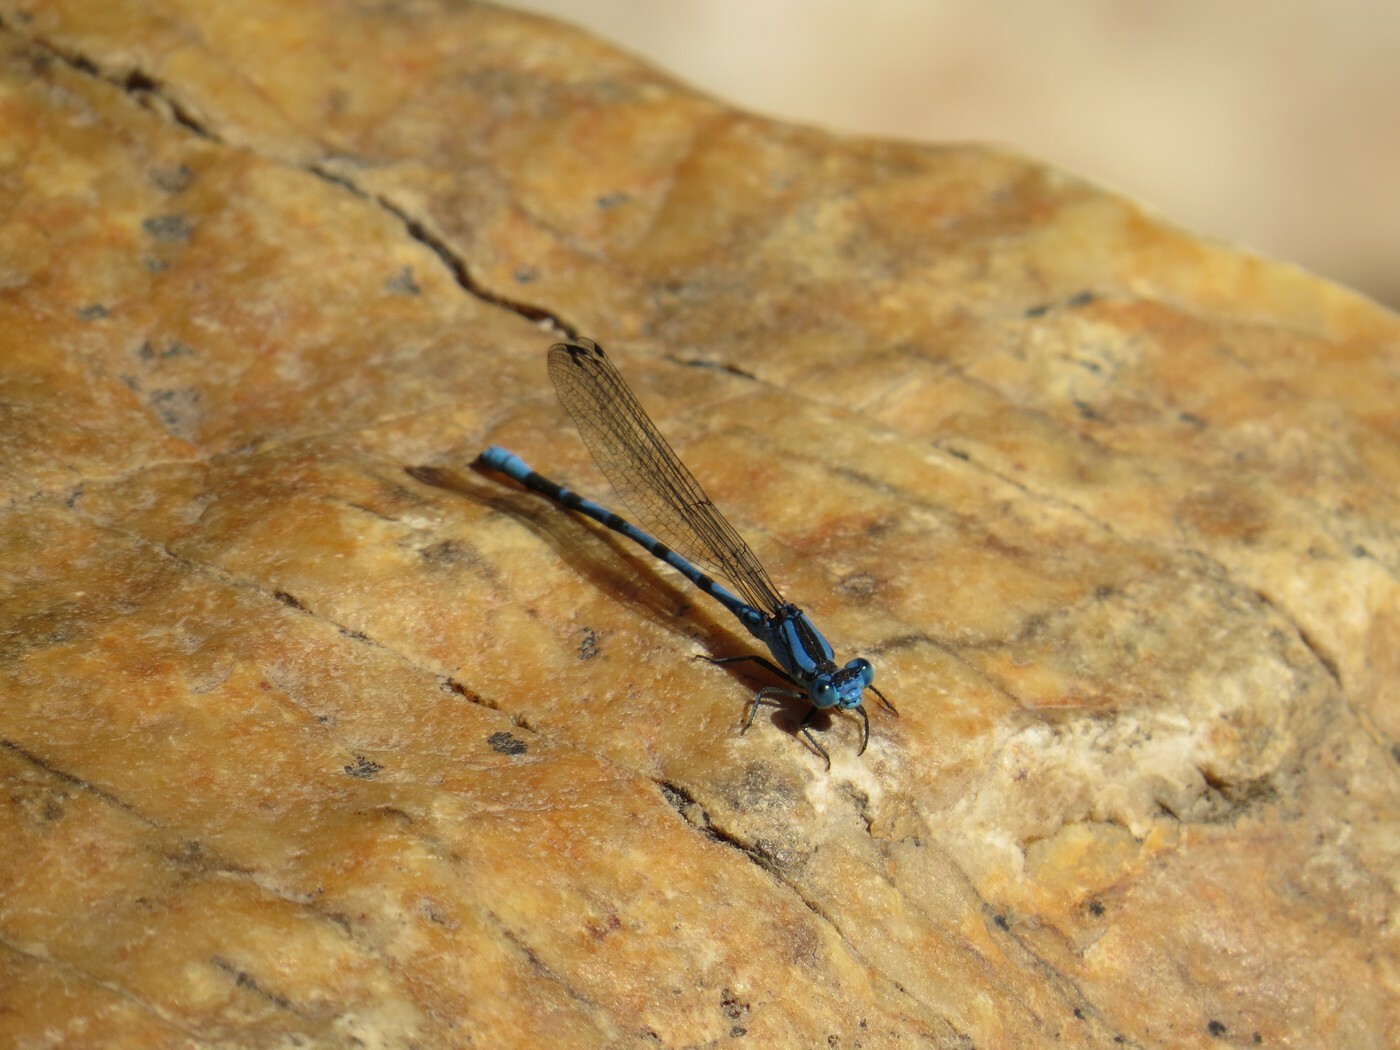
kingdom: Animalia
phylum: Arthropoda
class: Insecta
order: Odonata
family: Coenagrionidae
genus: Argia
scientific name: Argia vivida
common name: Vivid dancer
